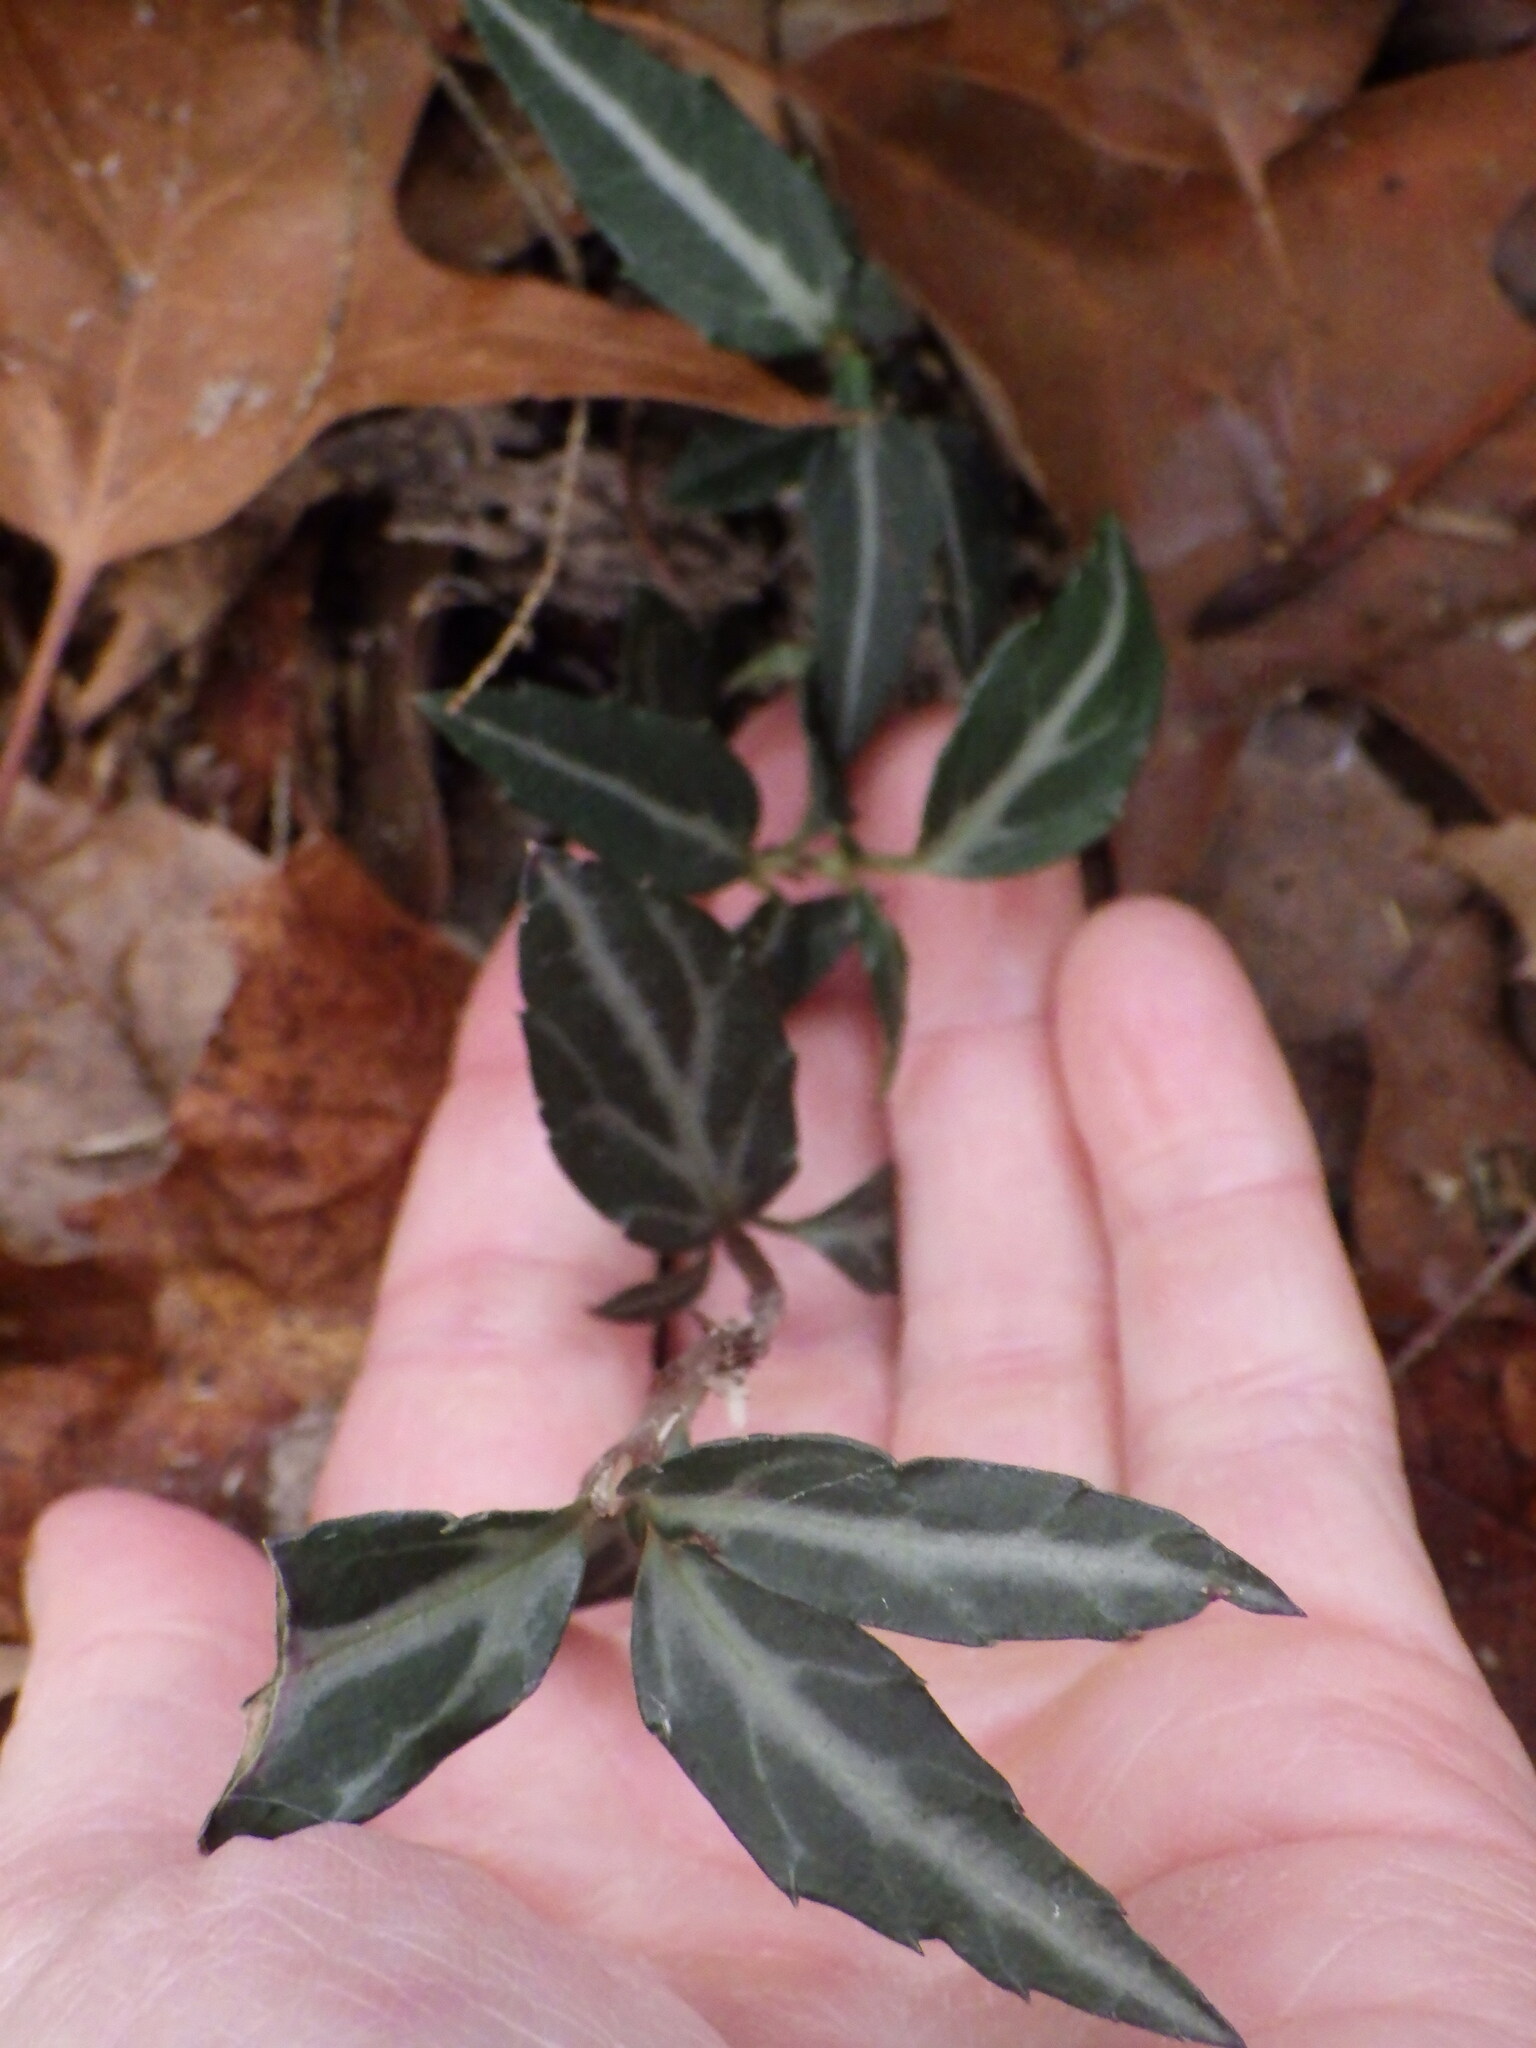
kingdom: Plantae
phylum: Tracheophyta
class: Magnoliopsida
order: Ericales
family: Ericaceae
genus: Chimaphila
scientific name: Chimaphila maculata
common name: Spotted pipsissewa
